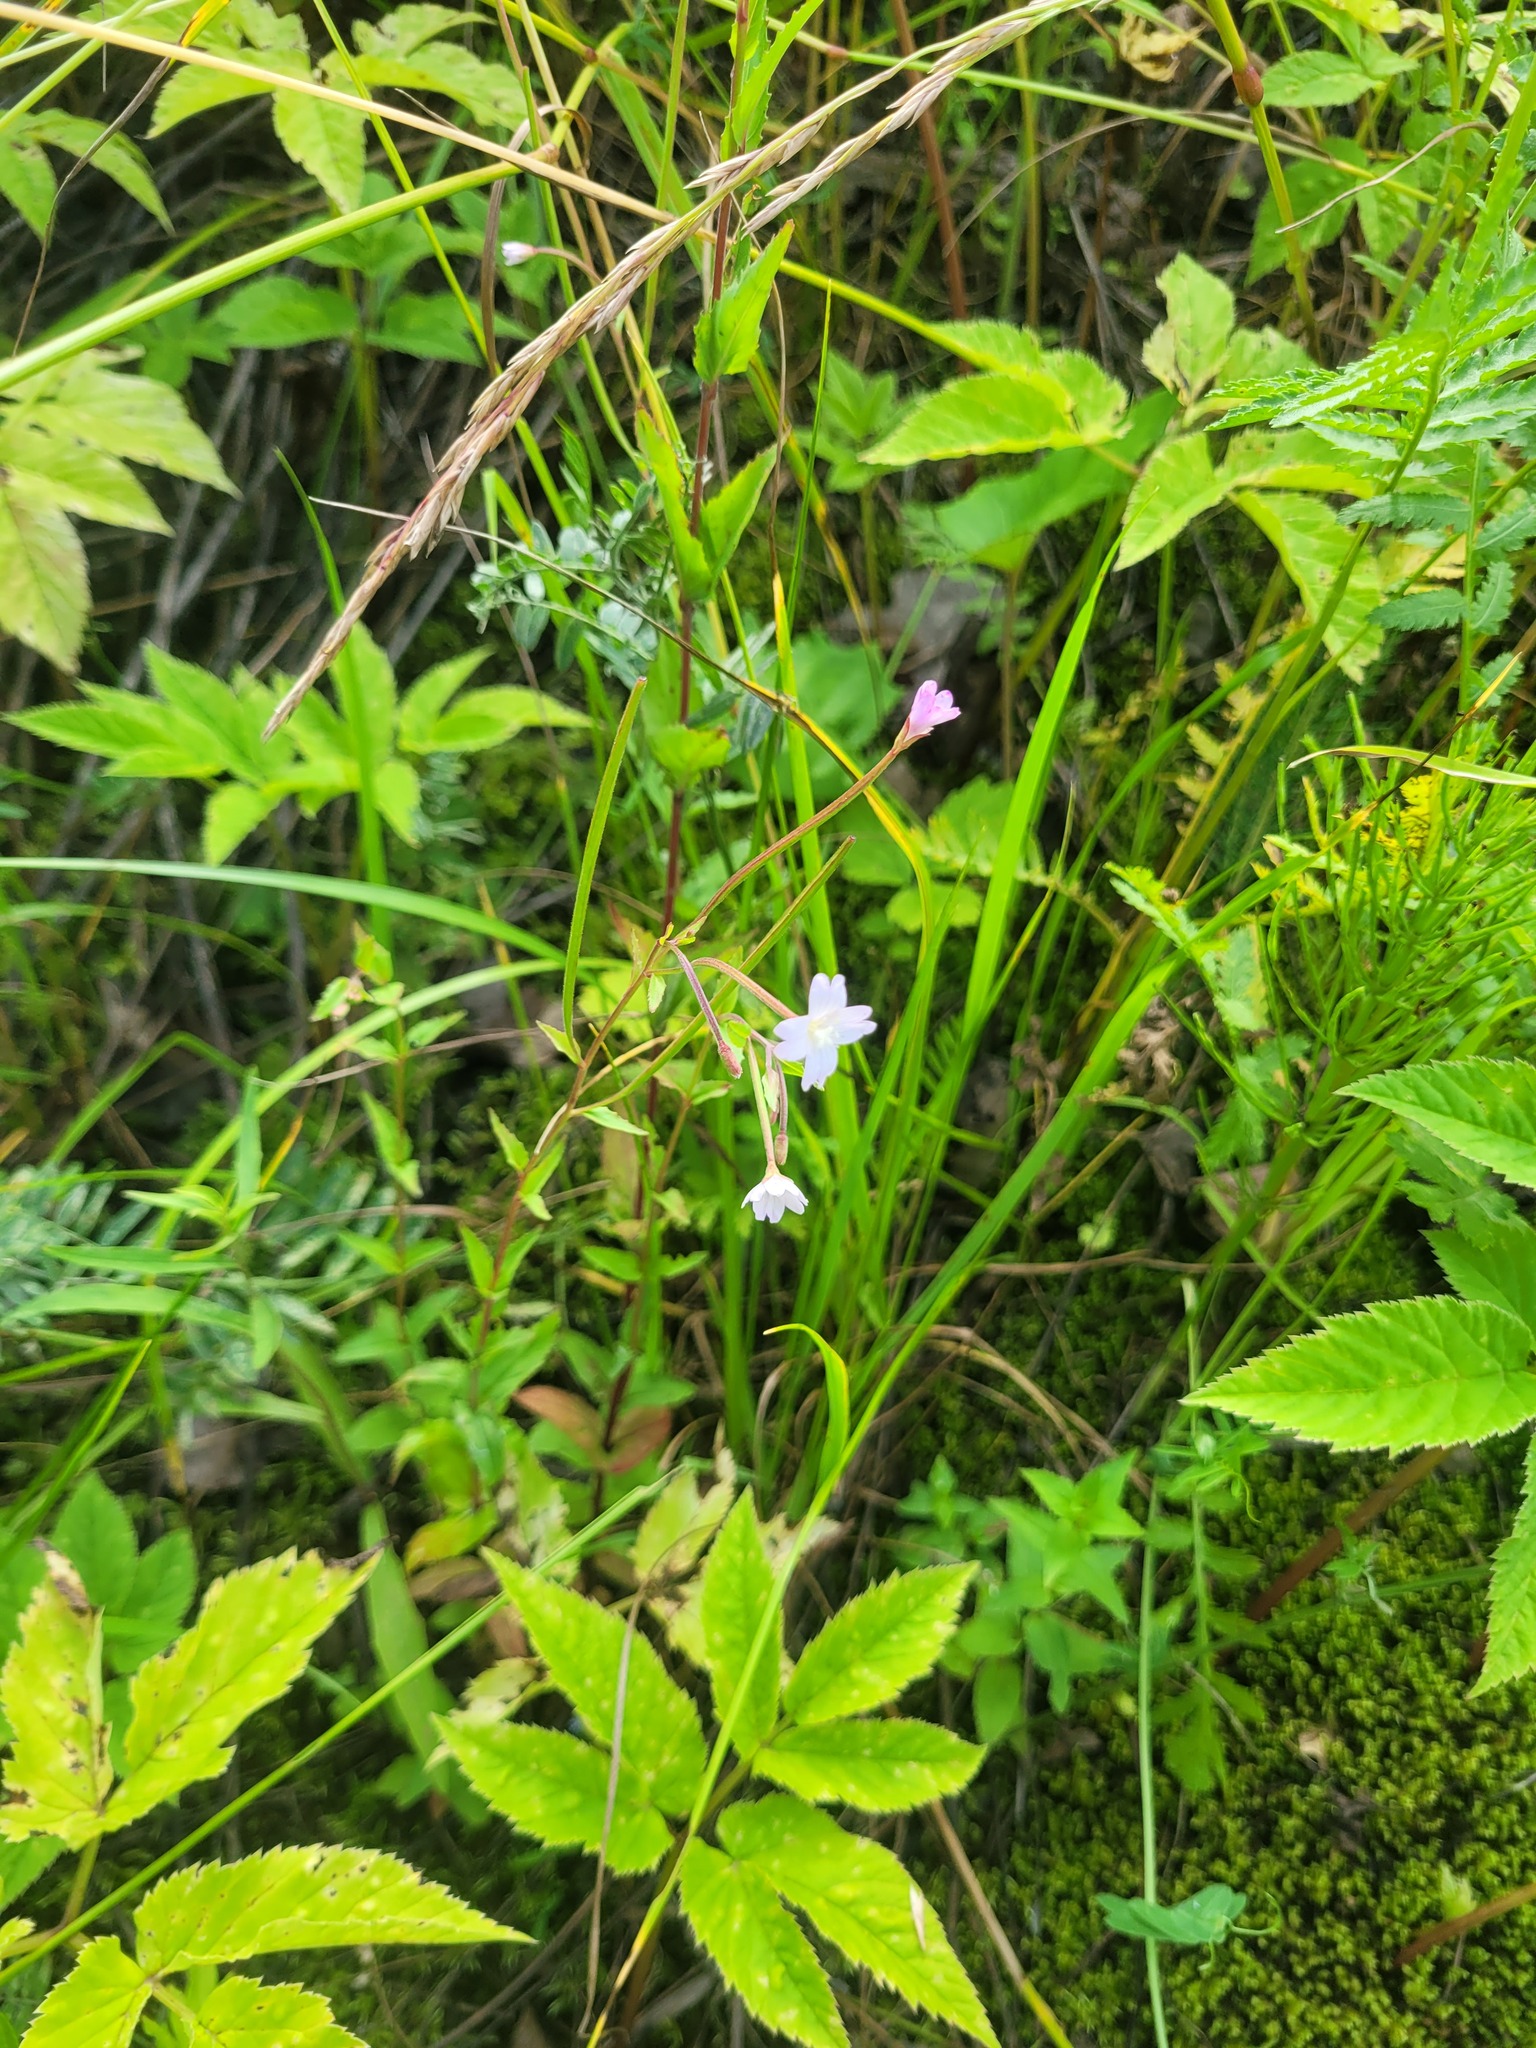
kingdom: Plantae
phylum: Tracheophyta
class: Magnoliopsida
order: Myrtales
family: Onagraceae
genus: Epilobium
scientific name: Epilobium montanum
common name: Broad-leaved willowherb
